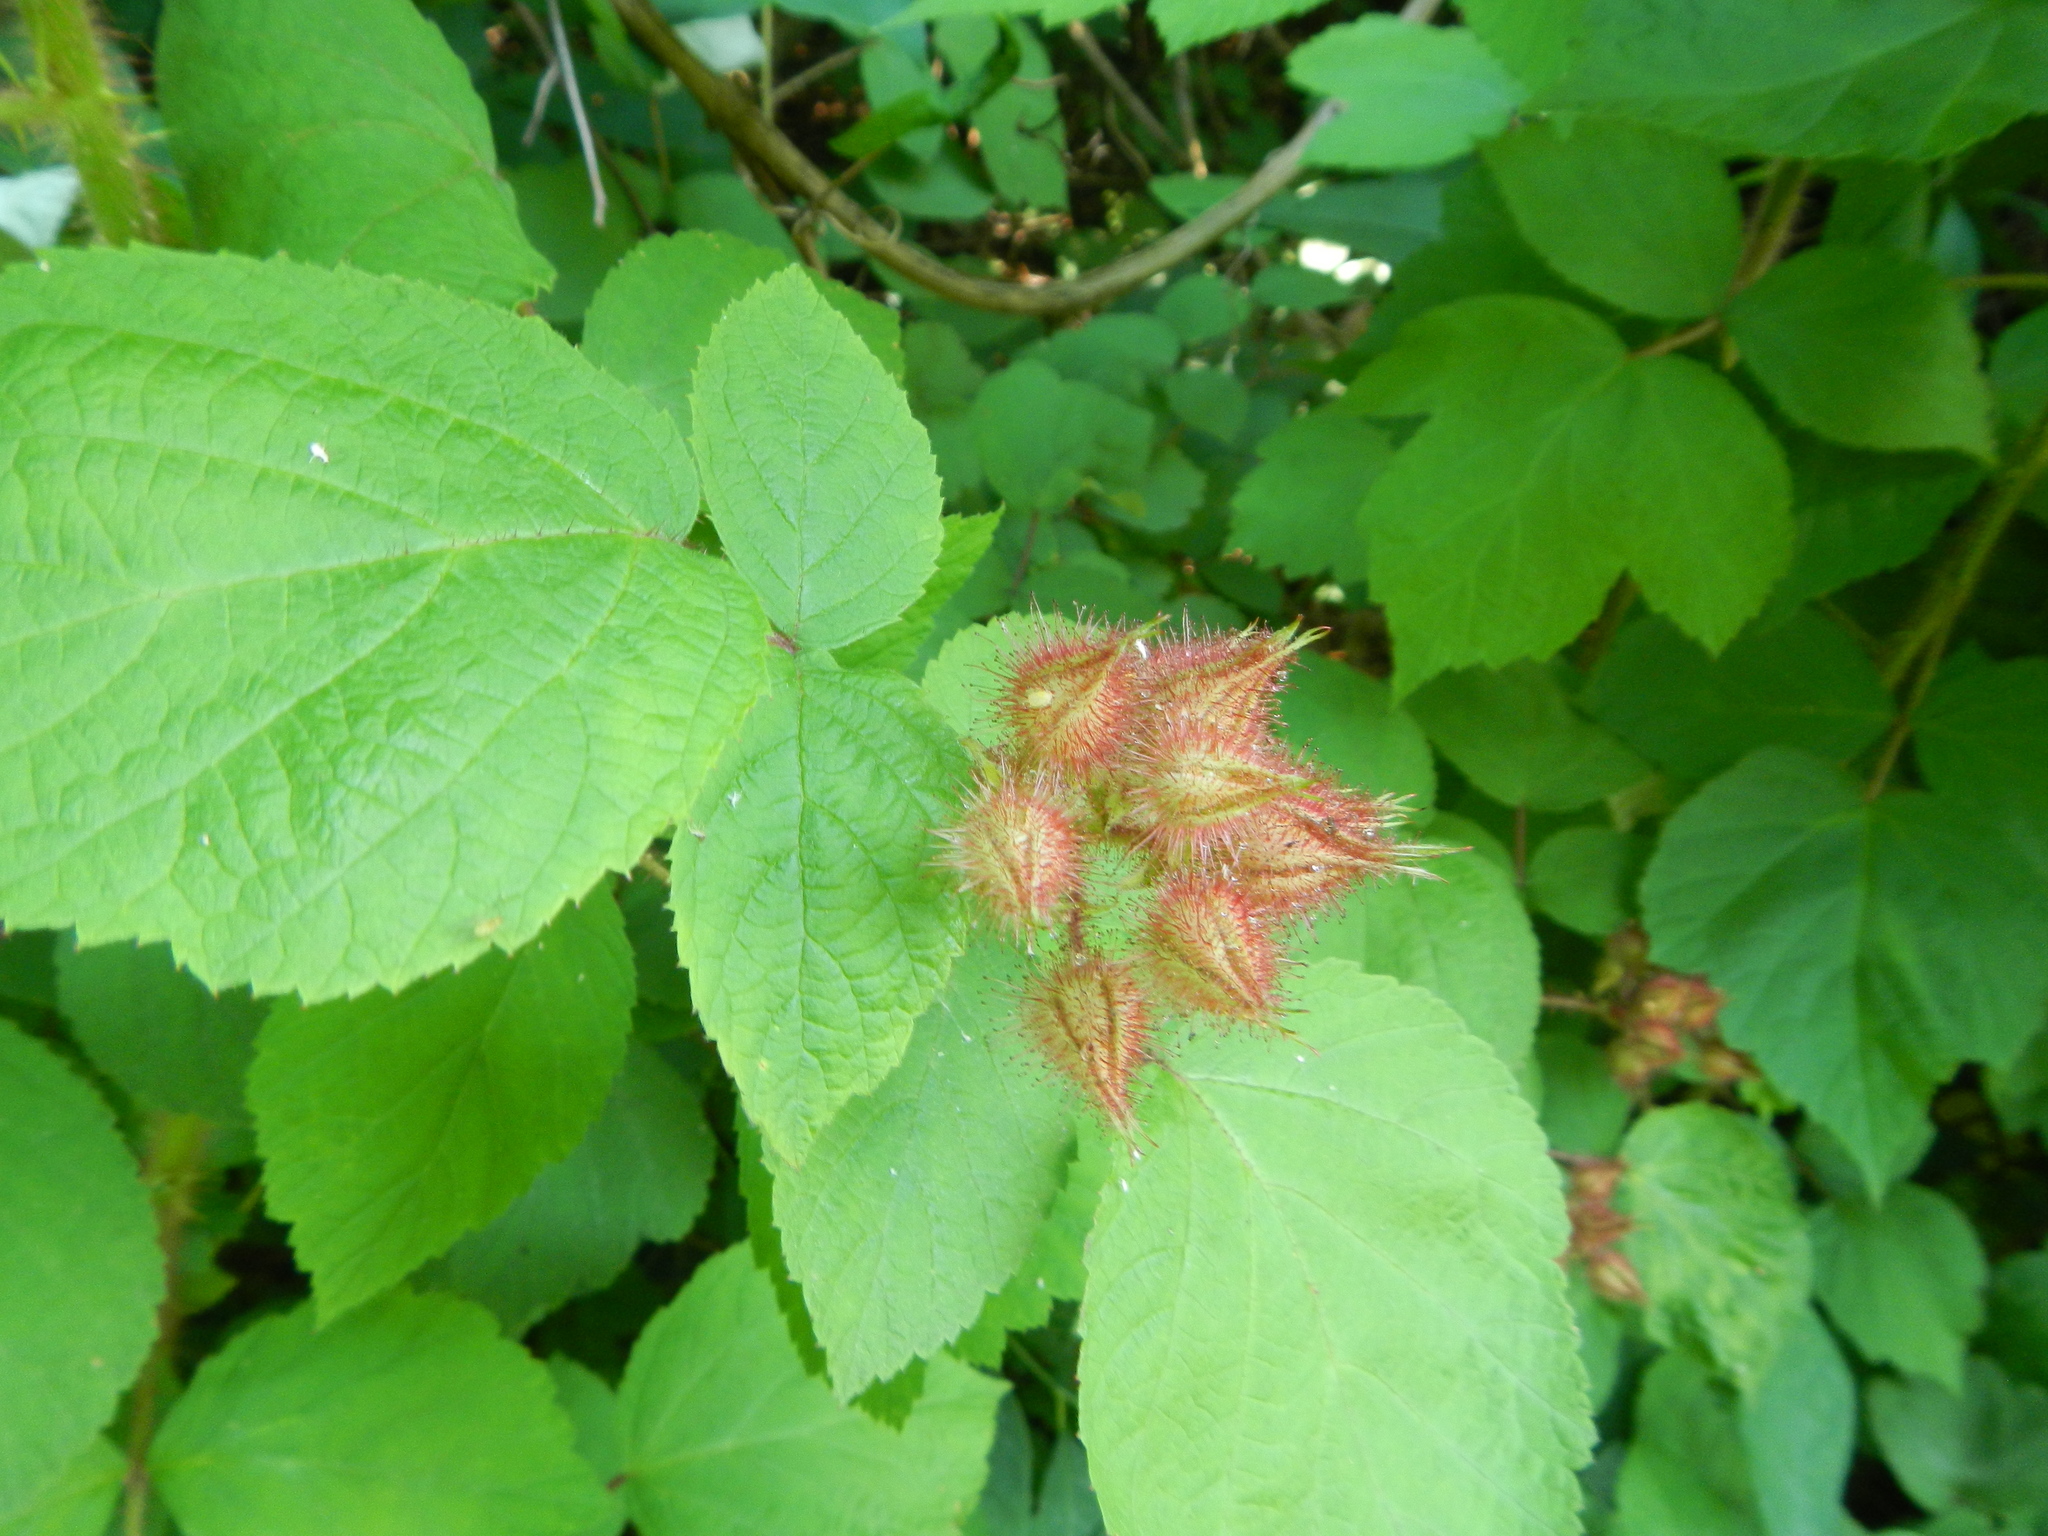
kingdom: Plantae
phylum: Tracheophyta
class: Magnoliopsida
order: Rosales
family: Rosaceae
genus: Rubus
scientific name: Rubus phoenicolasius
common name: Japanese wineberry
